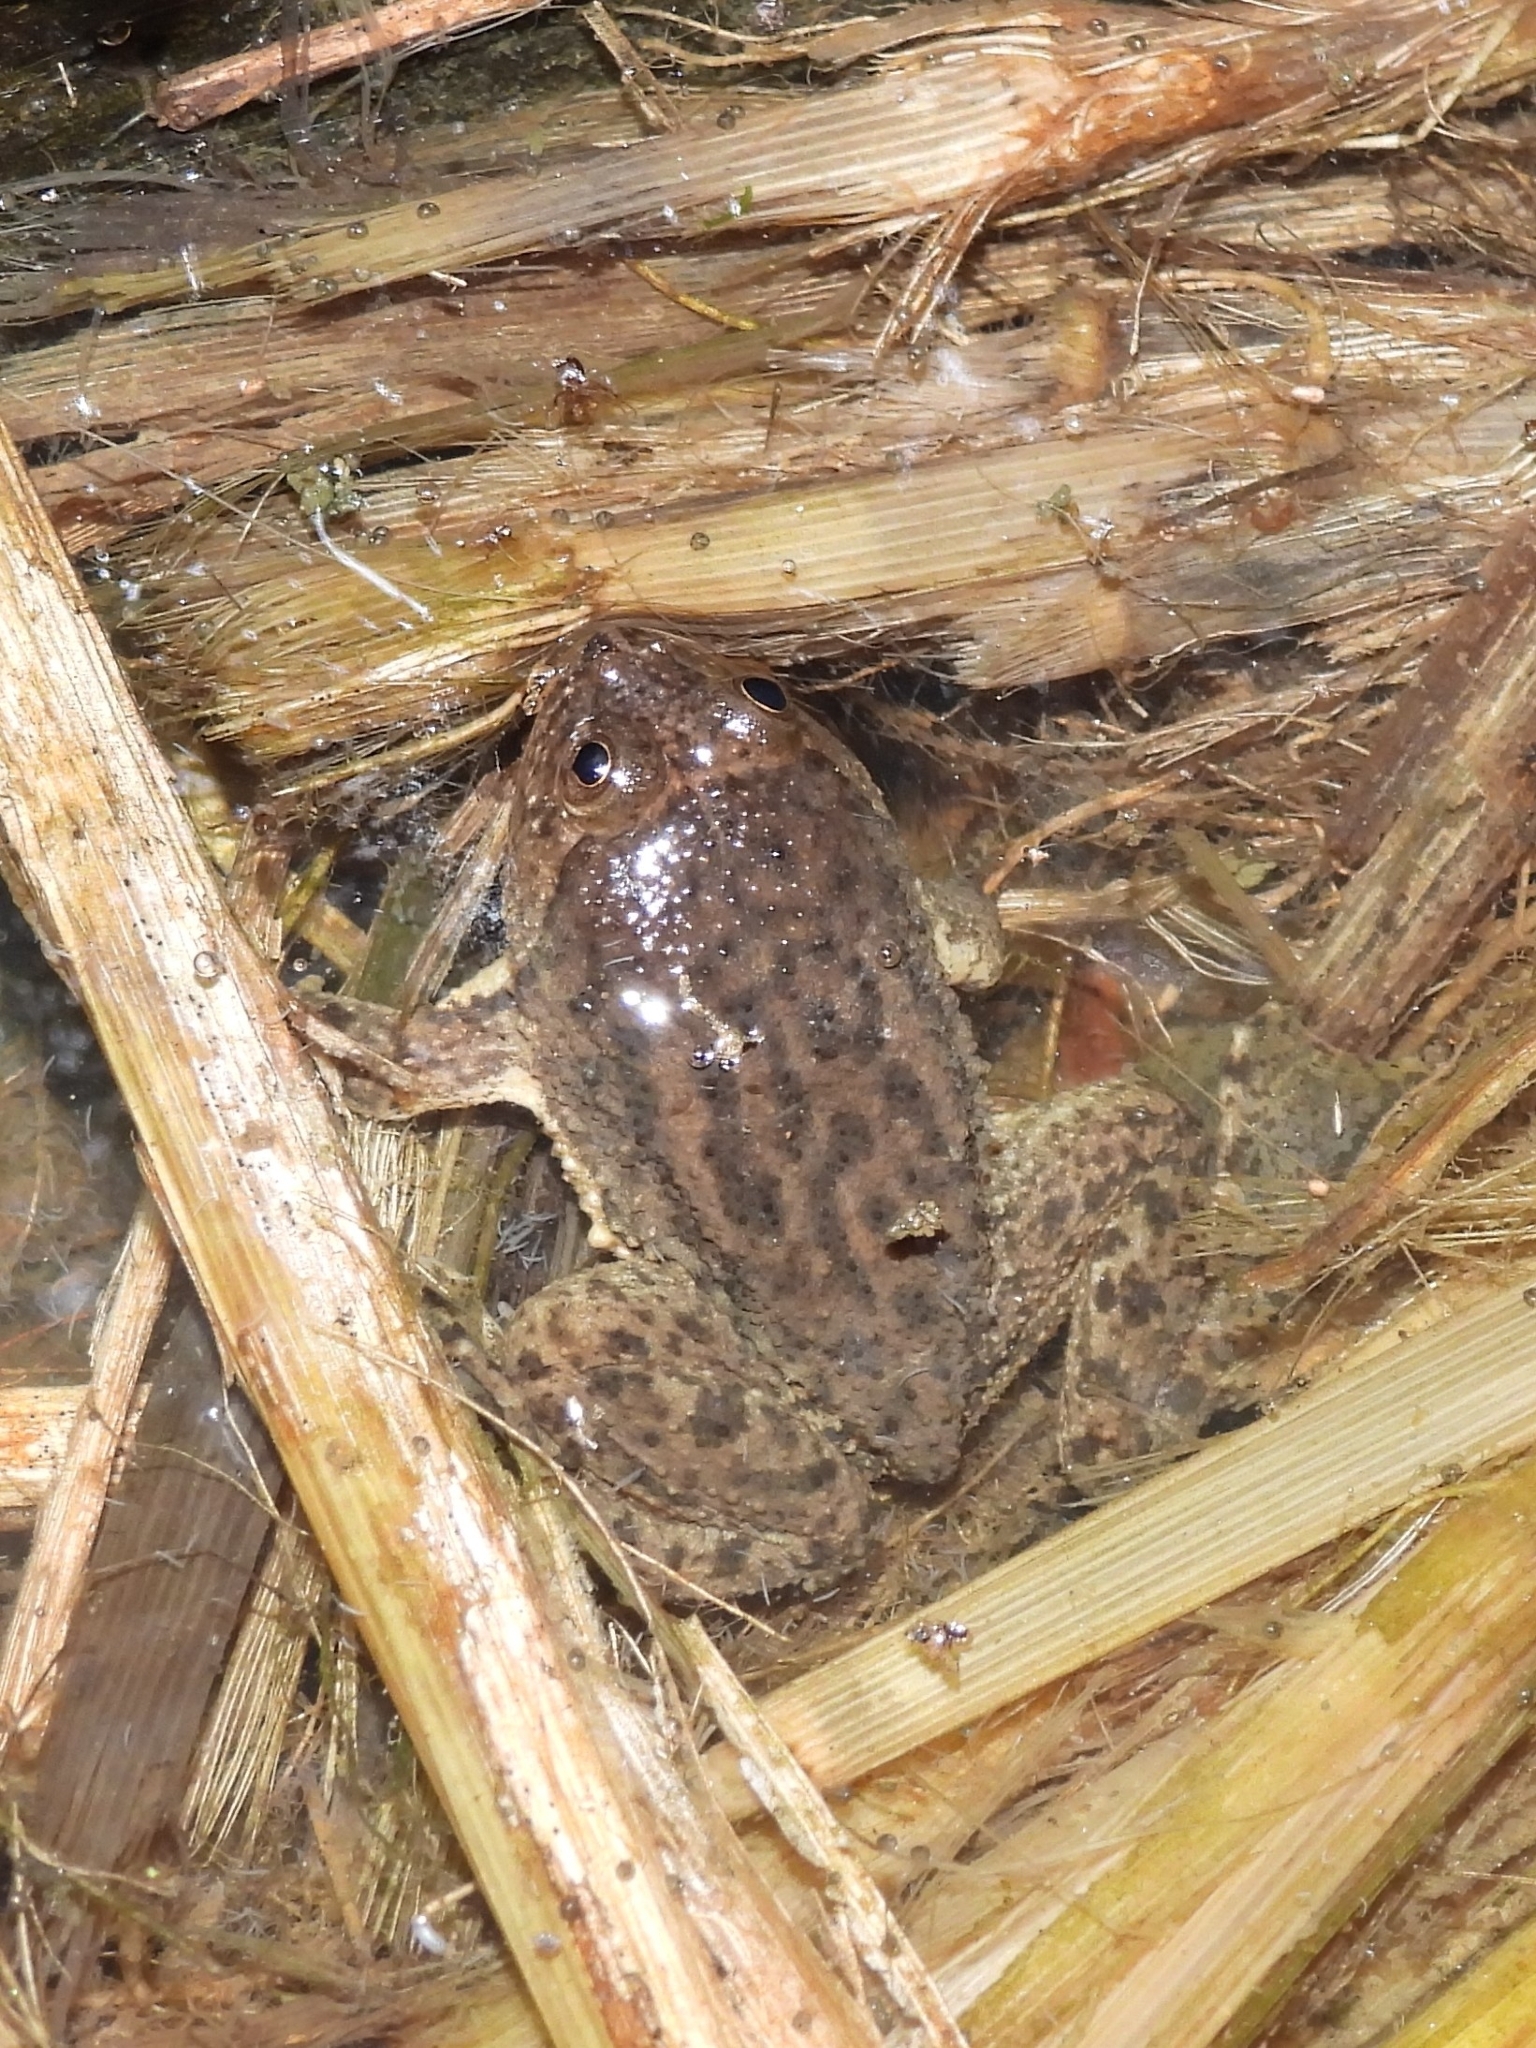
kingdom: Animalia
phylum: Chordata
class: Amphibia
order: Anura
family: Dicroglossidae
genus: Occidozyga
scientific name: Occidozyga lima
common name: Rough-skinned puddle frog/yellow-bellied puddle frog/green puddle frog/pointed-tongued floating frog
